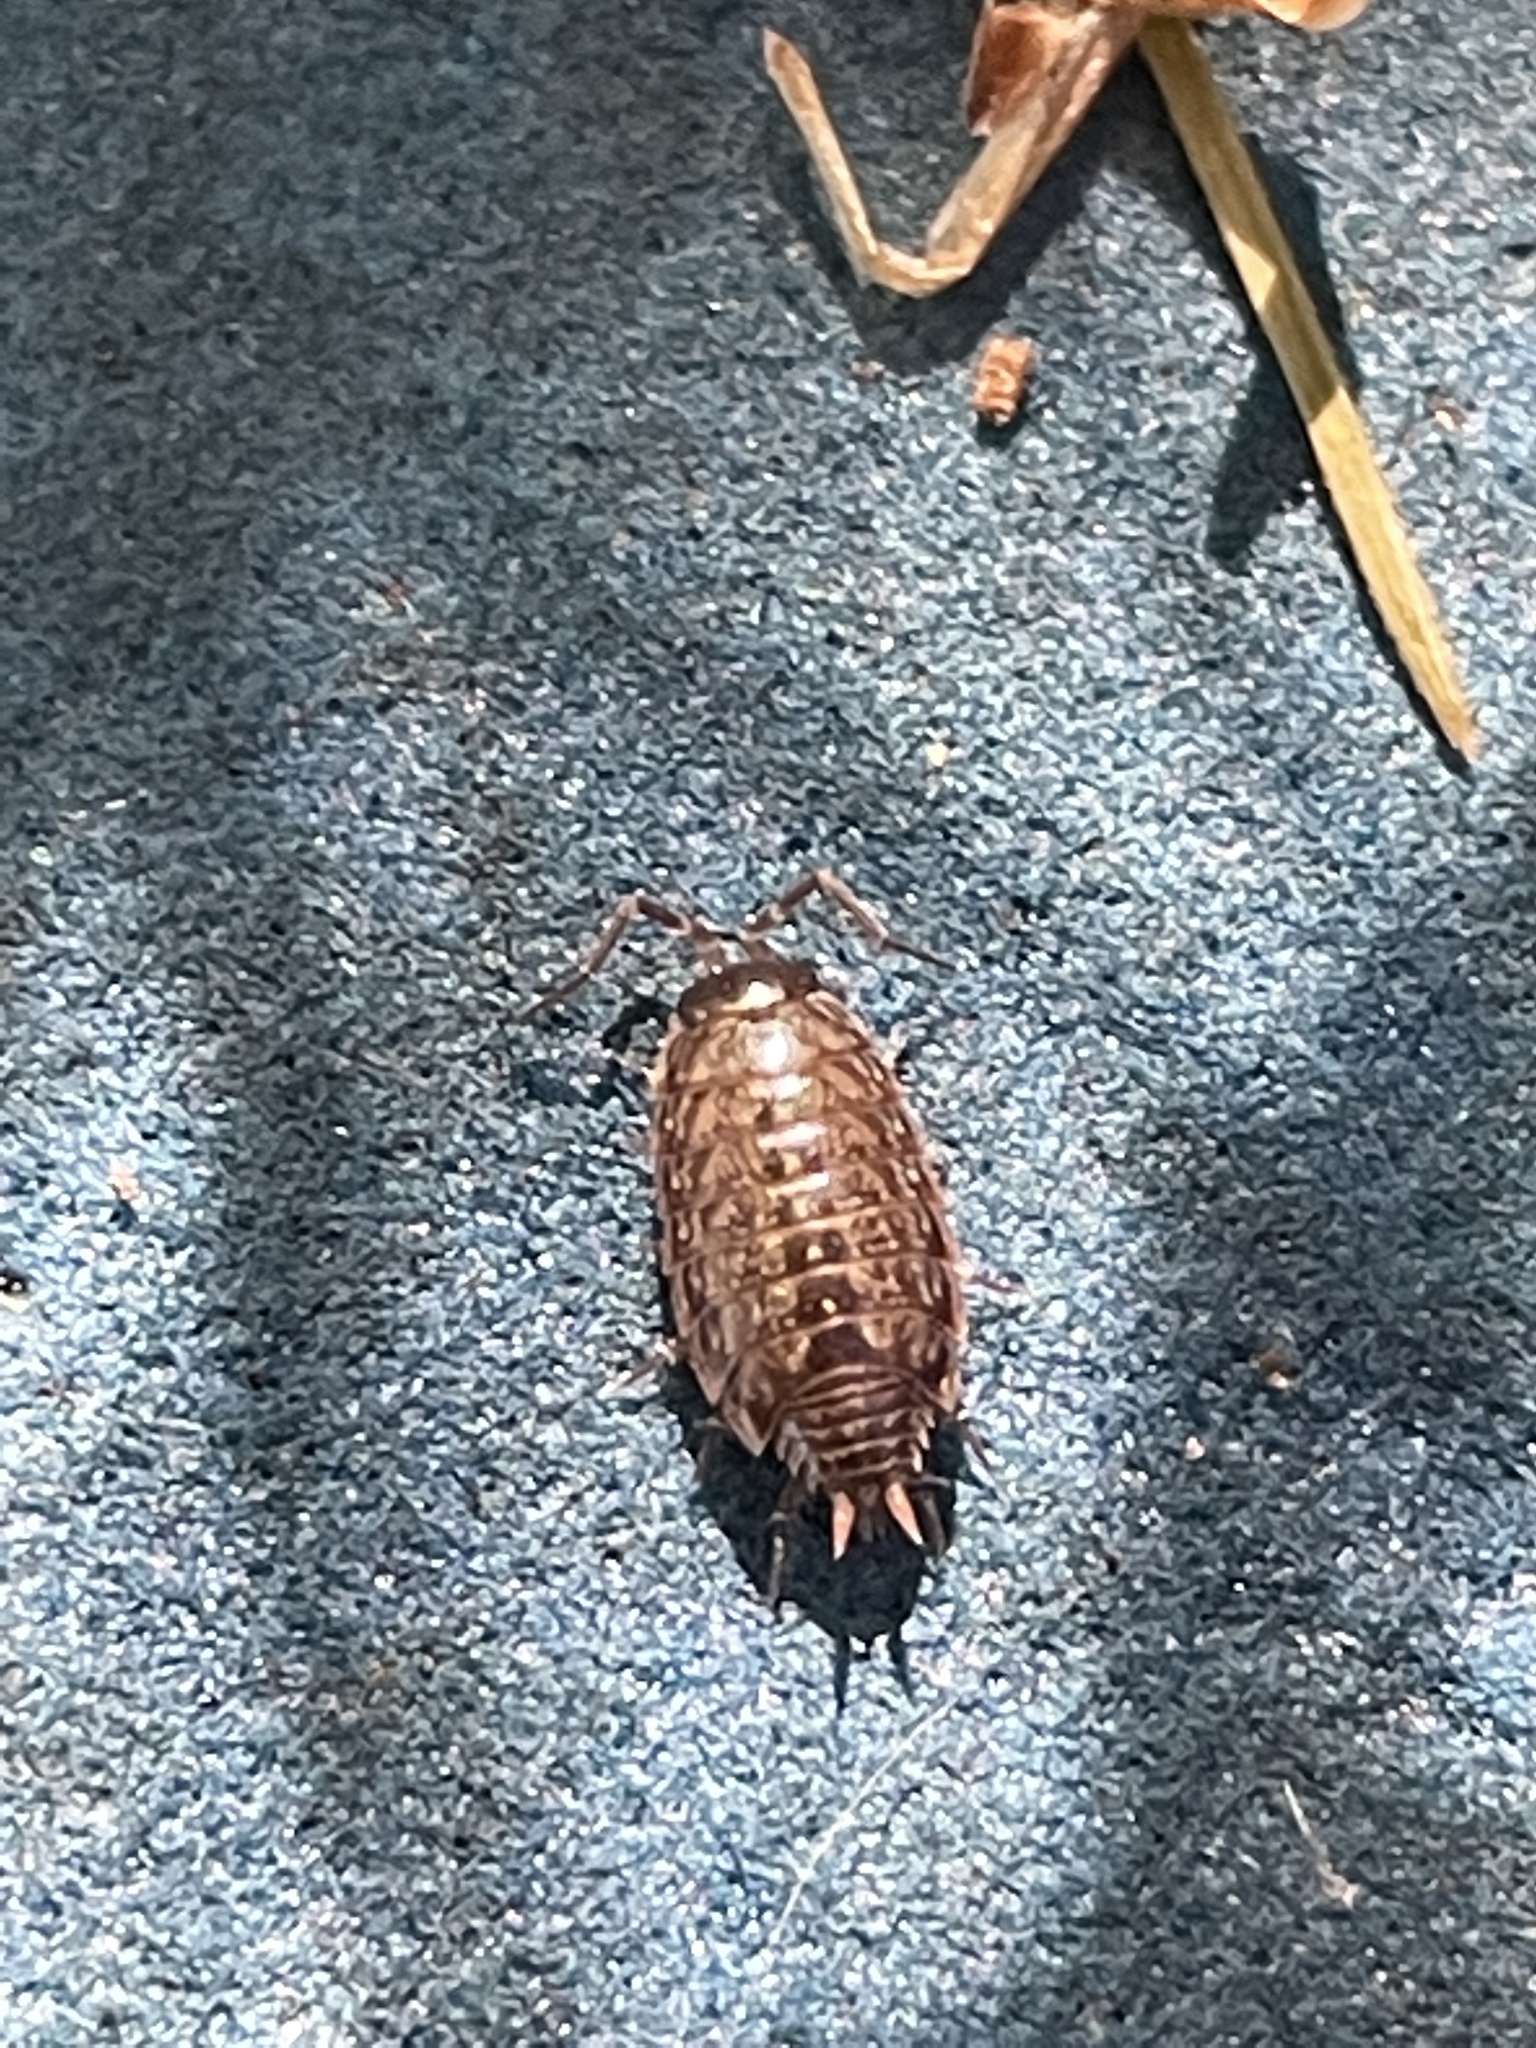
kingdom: Animalia
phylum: Arthropoda
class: Malacostraca
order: Isopoda
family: Philosciidae
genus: Philoscia
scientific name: Philoscia muscorum
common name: Common striped woodlouse
